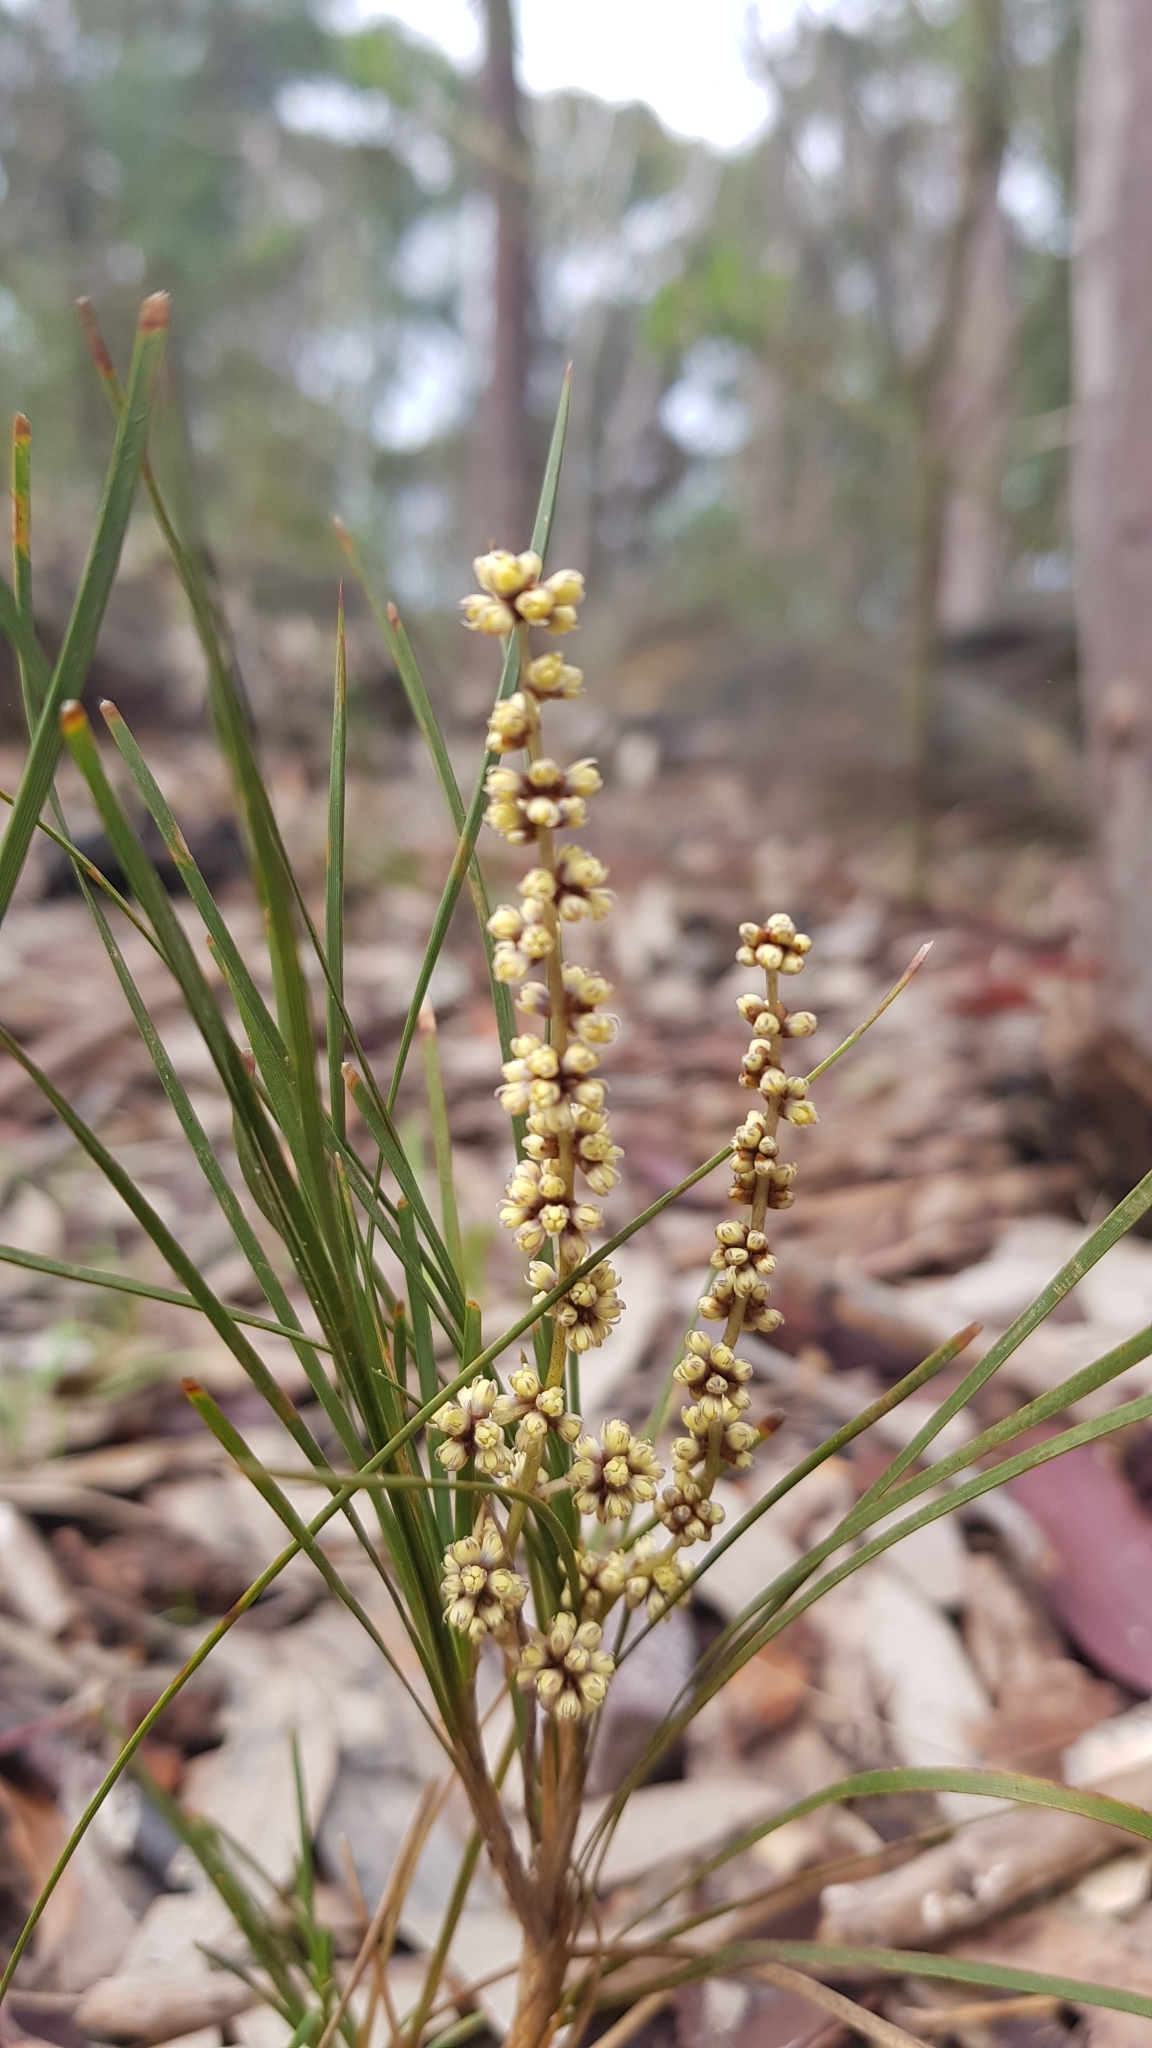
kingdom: Plantae
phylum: Tracheophyta
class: Liliopsida
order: Asparagales
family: Asparagaceae
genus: Lomandra
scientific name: Lomandra glauca
